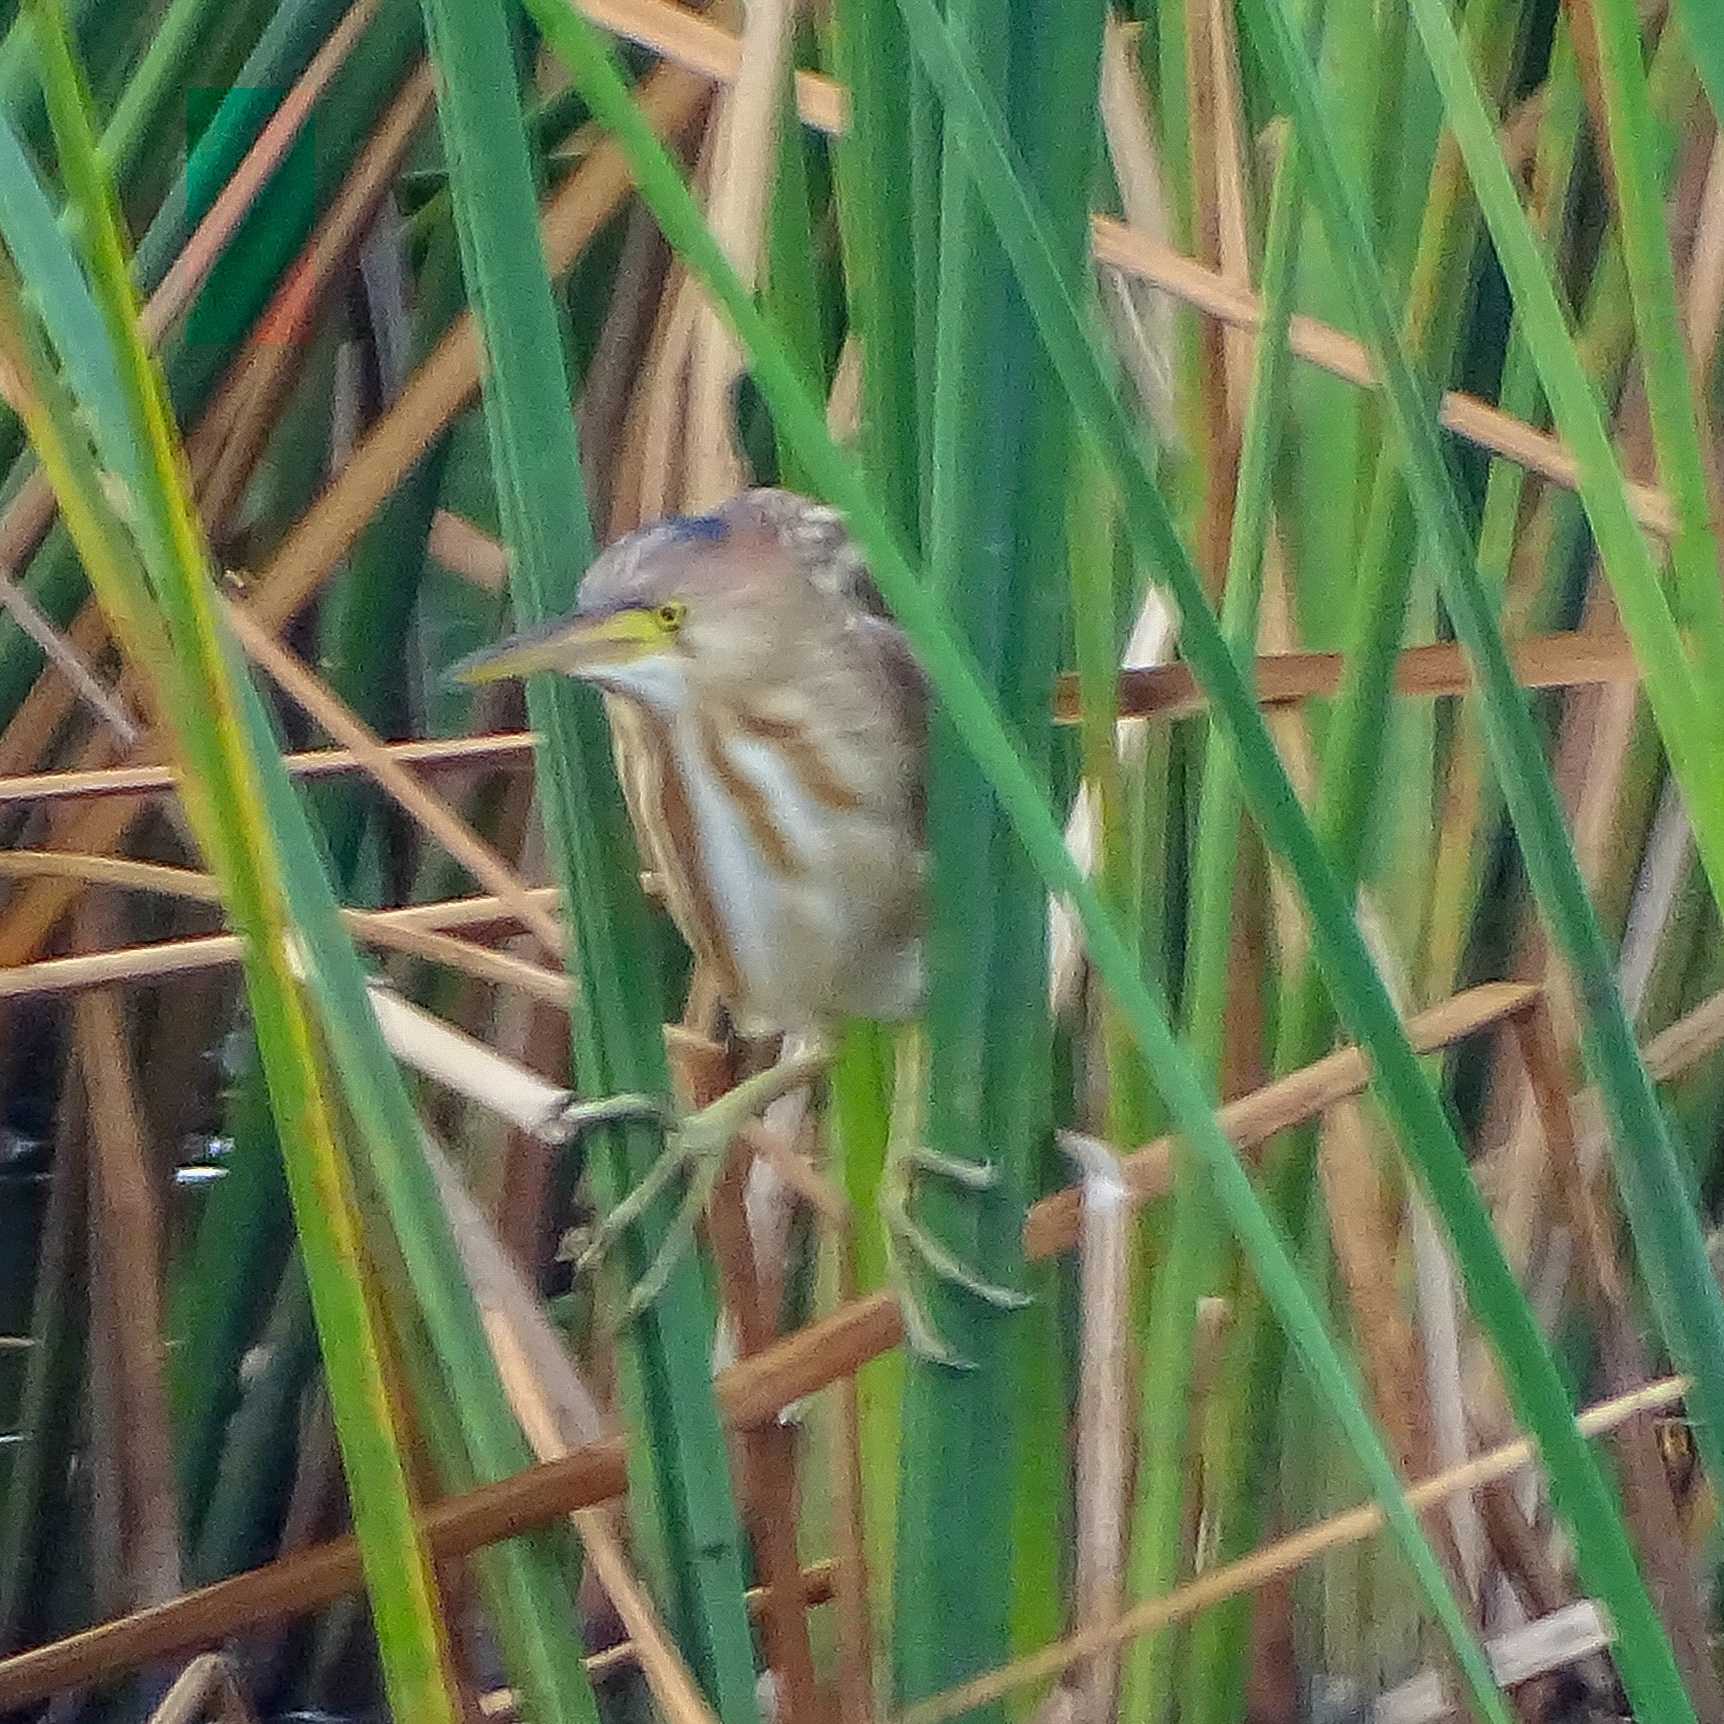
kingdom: Animalia
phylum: Chordata
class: Aves
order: Pelecaniformes
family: Ardeidae
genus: Ixobrychus
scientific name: Ixobrychus sinensis
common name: Yellow bittern
